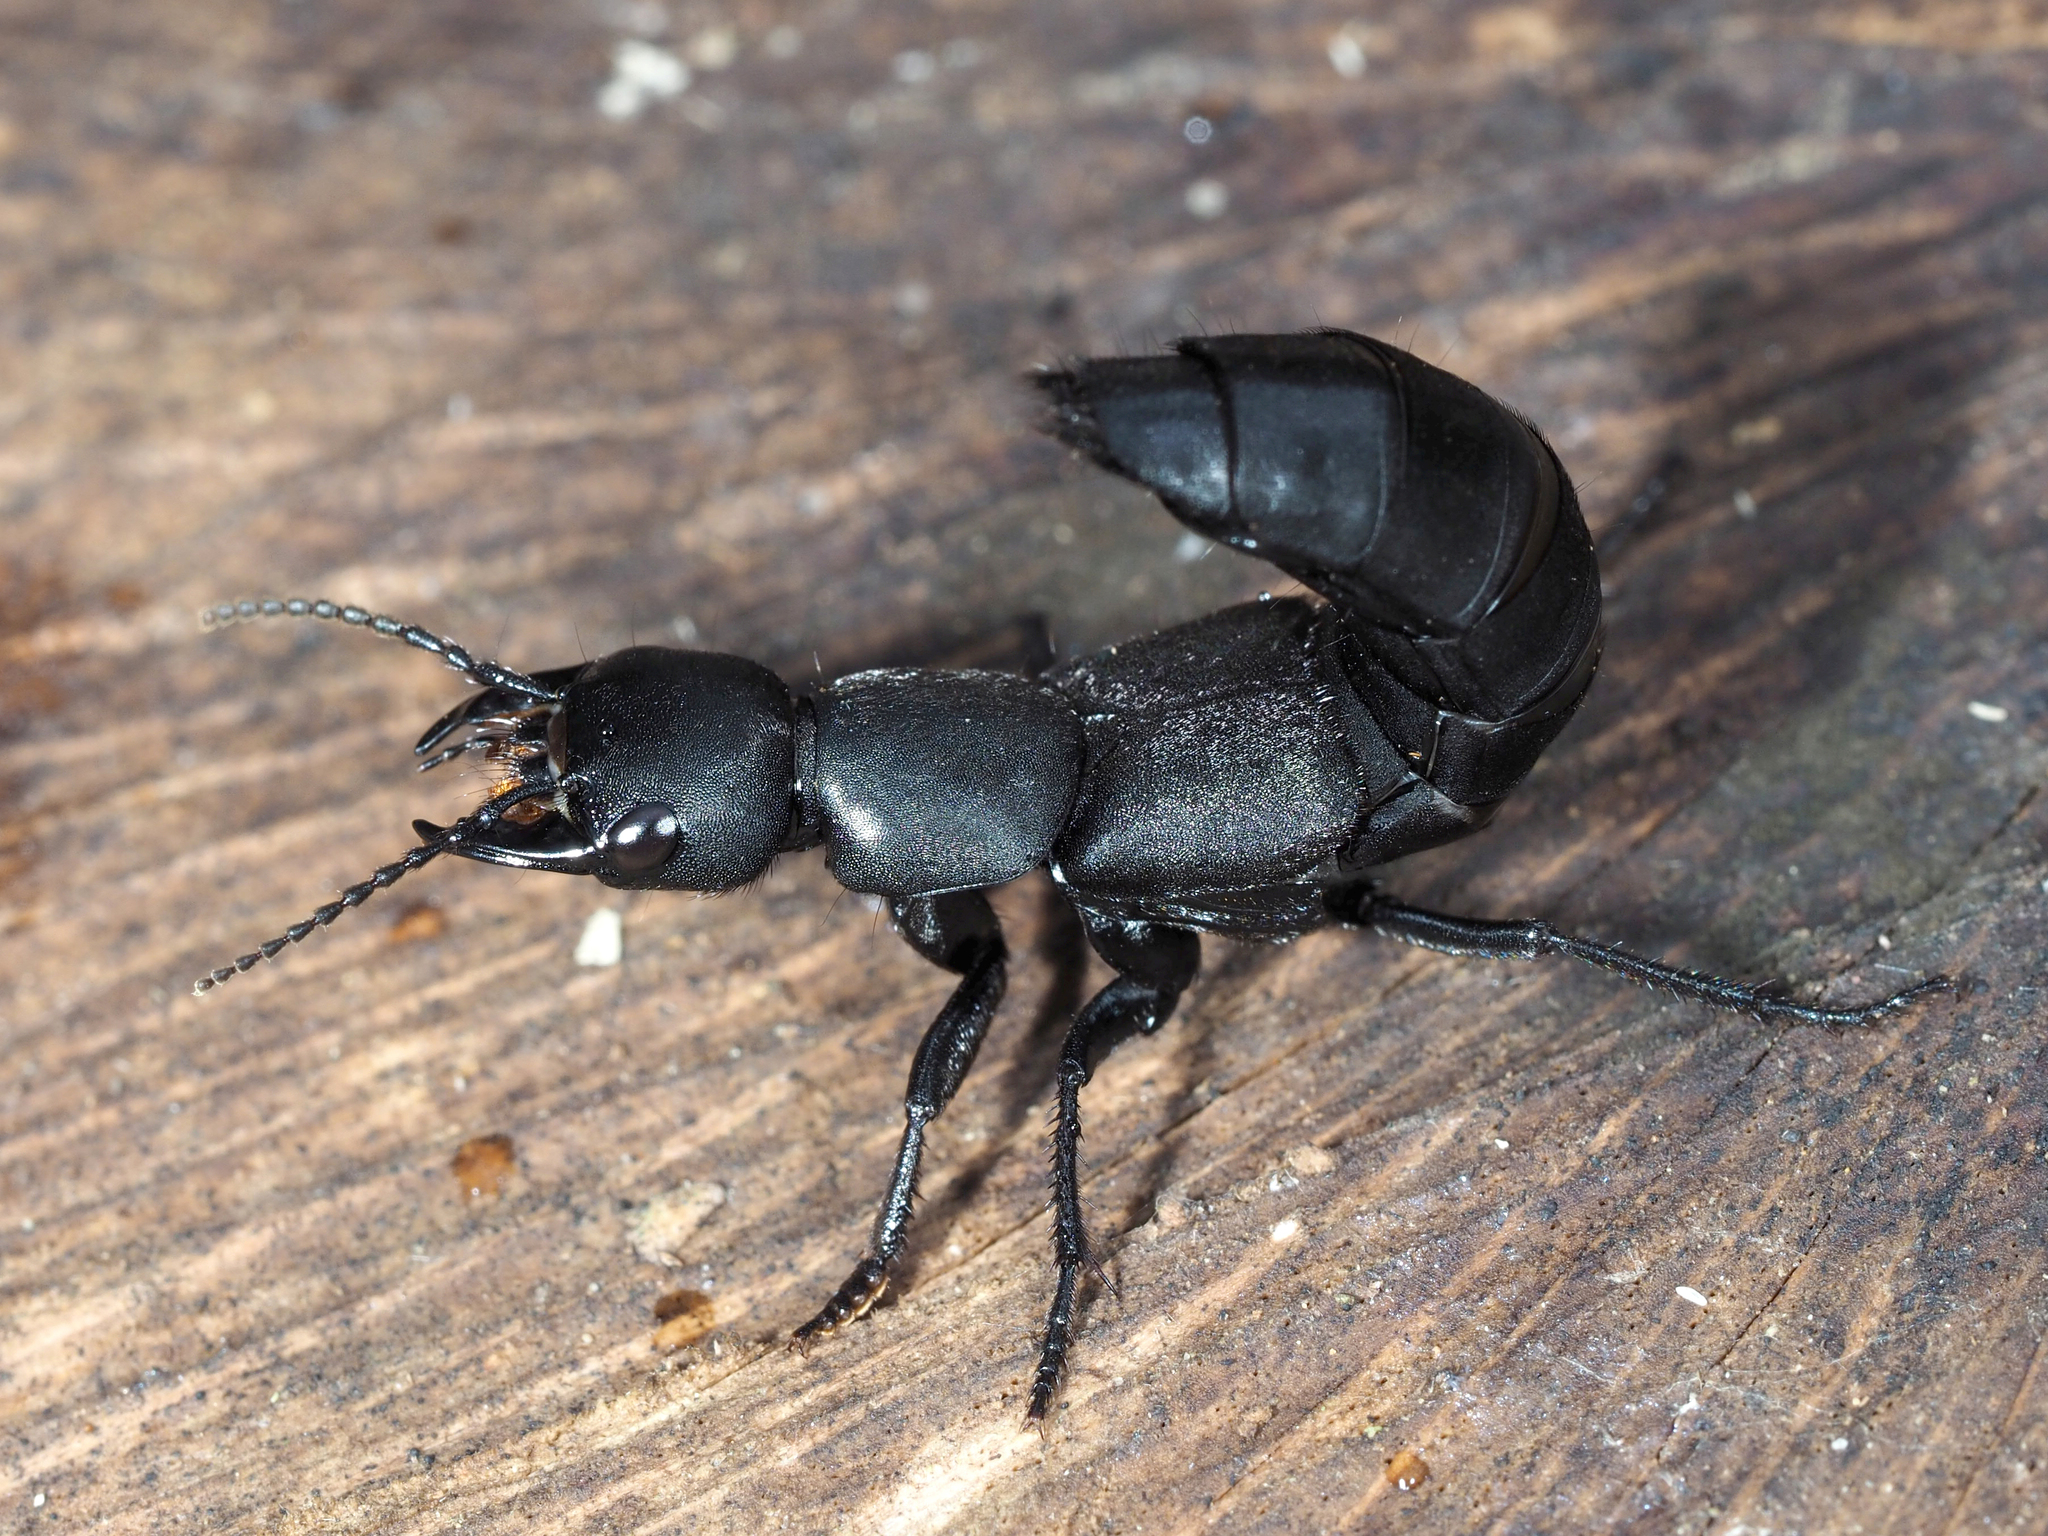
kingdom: Animalia
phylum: Arthropoda
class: Insecta
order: Coleoptera
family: Staphylinidae
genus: Ocypus
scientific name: Ocypus olens
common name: Devil's coach-horse
